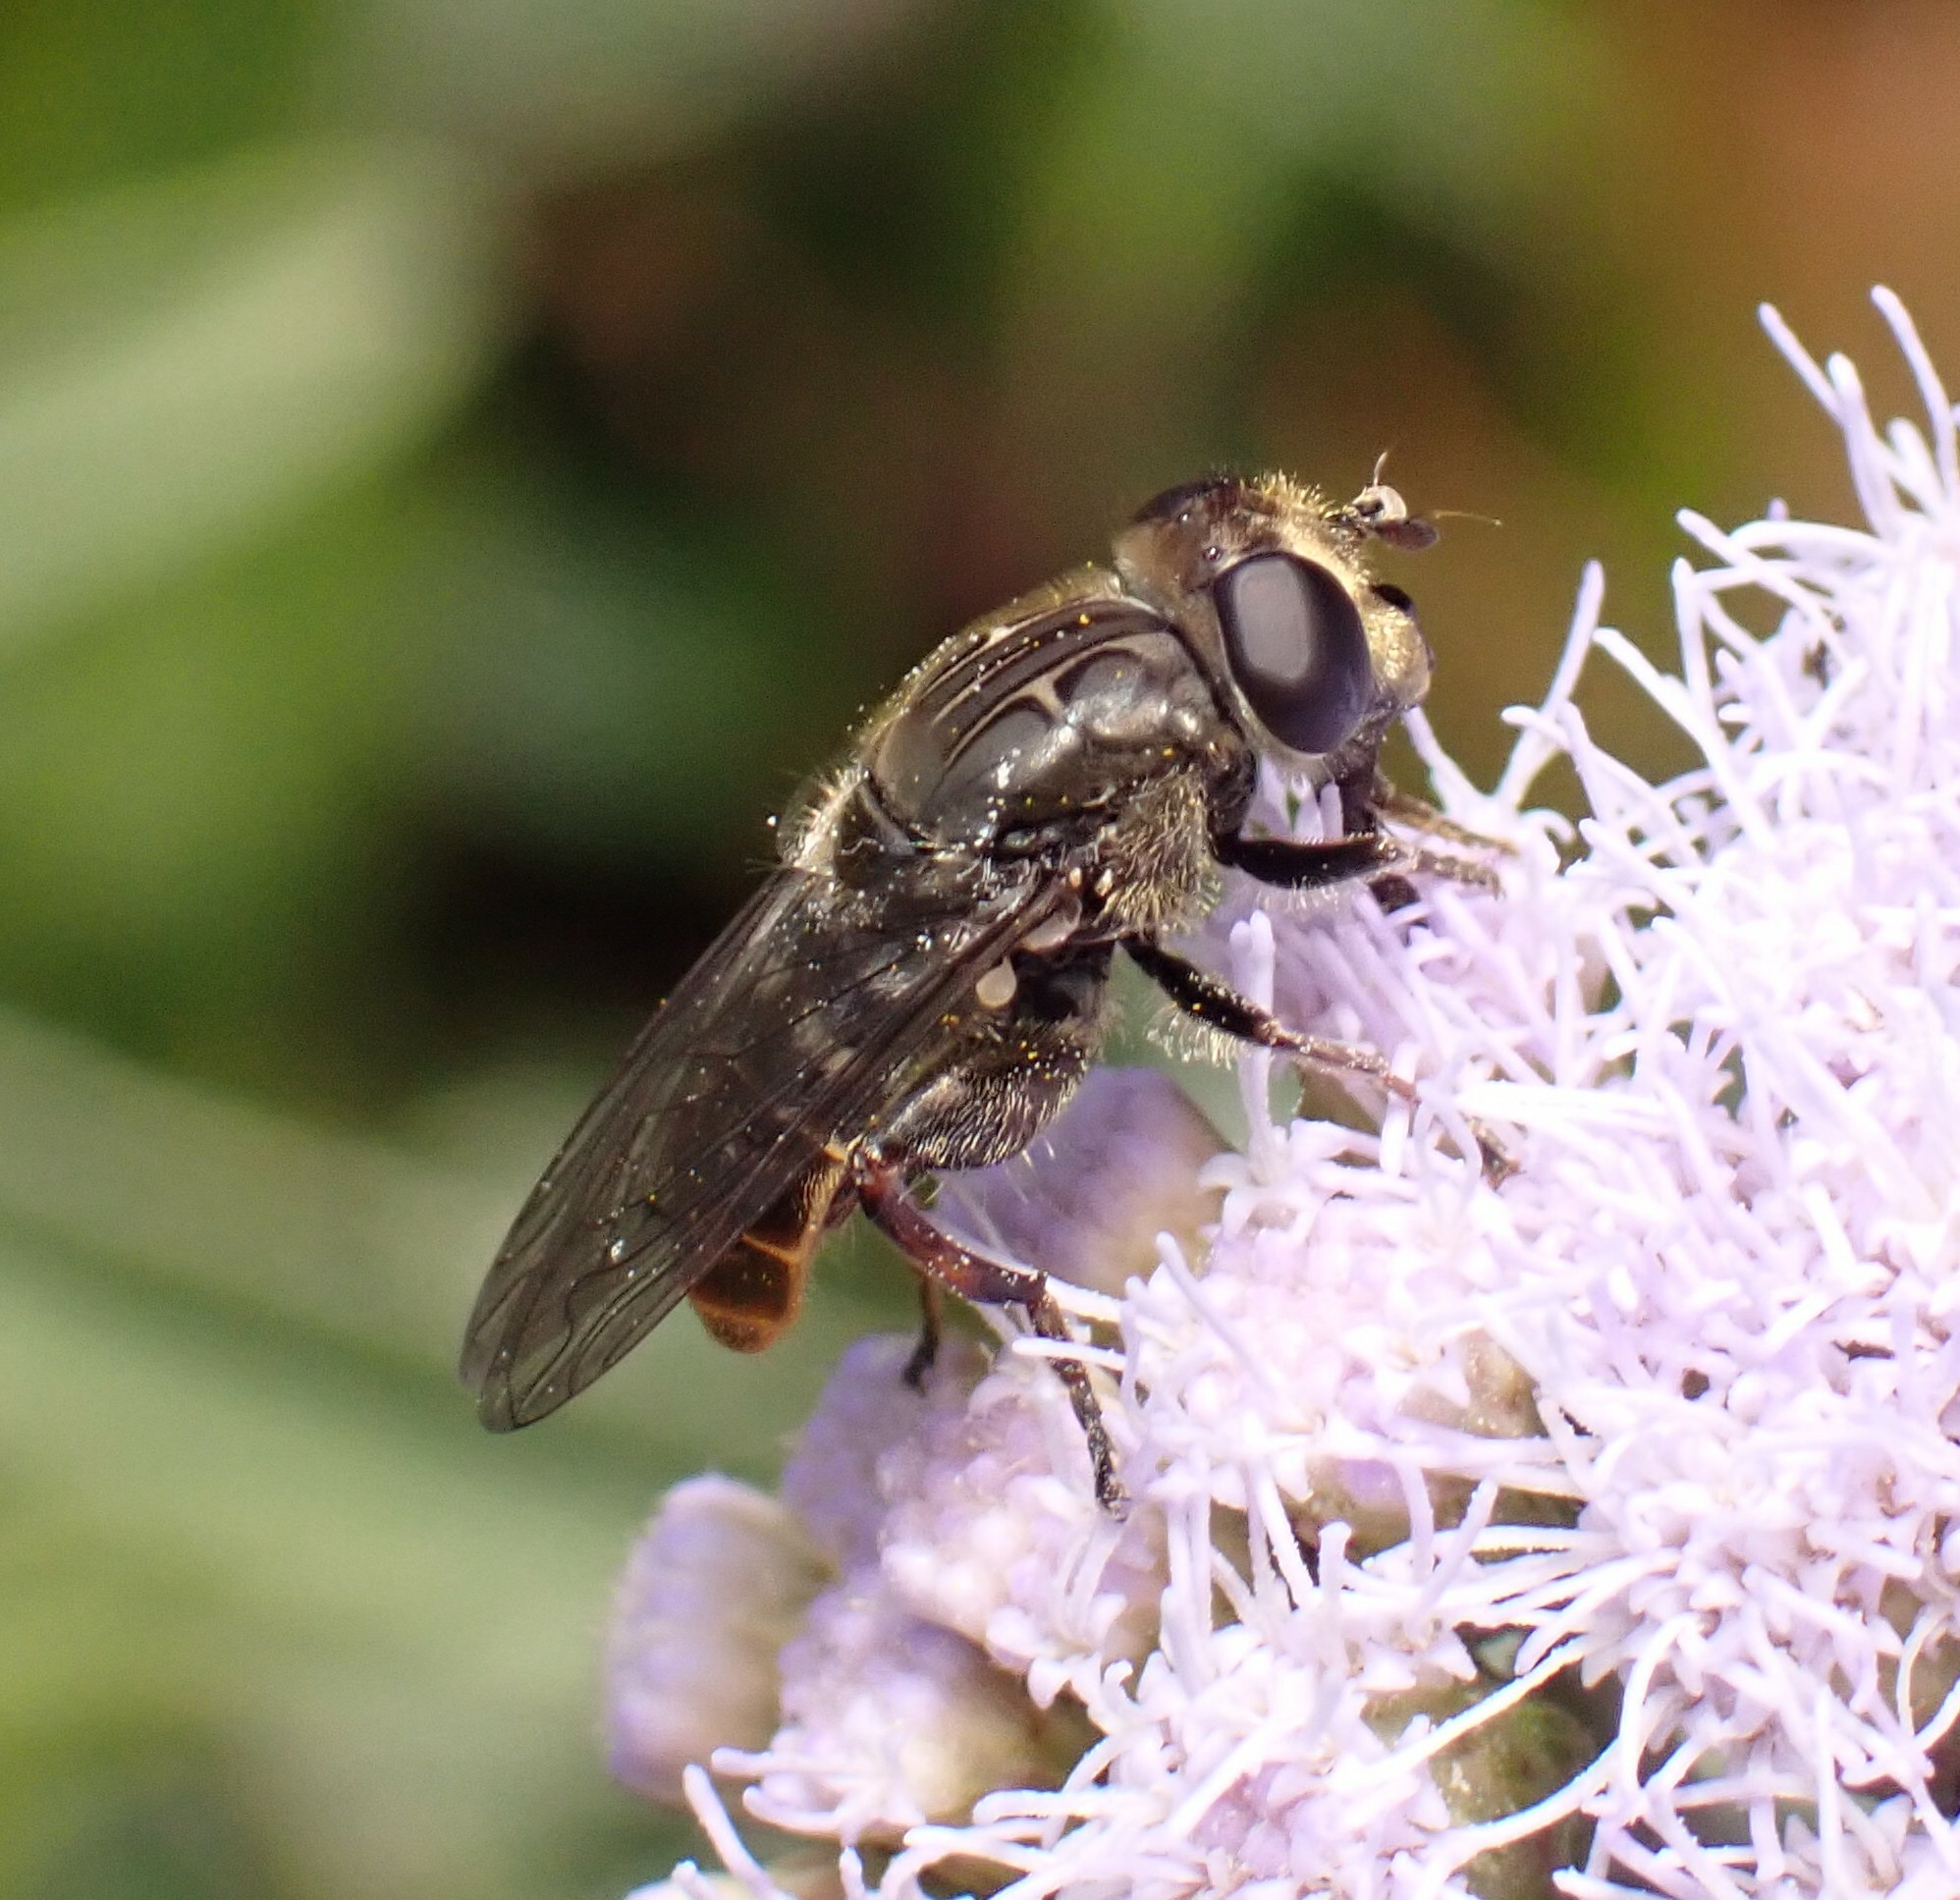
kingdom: Animalia
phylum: Arthropoda
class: Insecta
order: Diptera
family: Syrphidae
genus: Asemosyrphus
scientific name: Asemosyrphus
